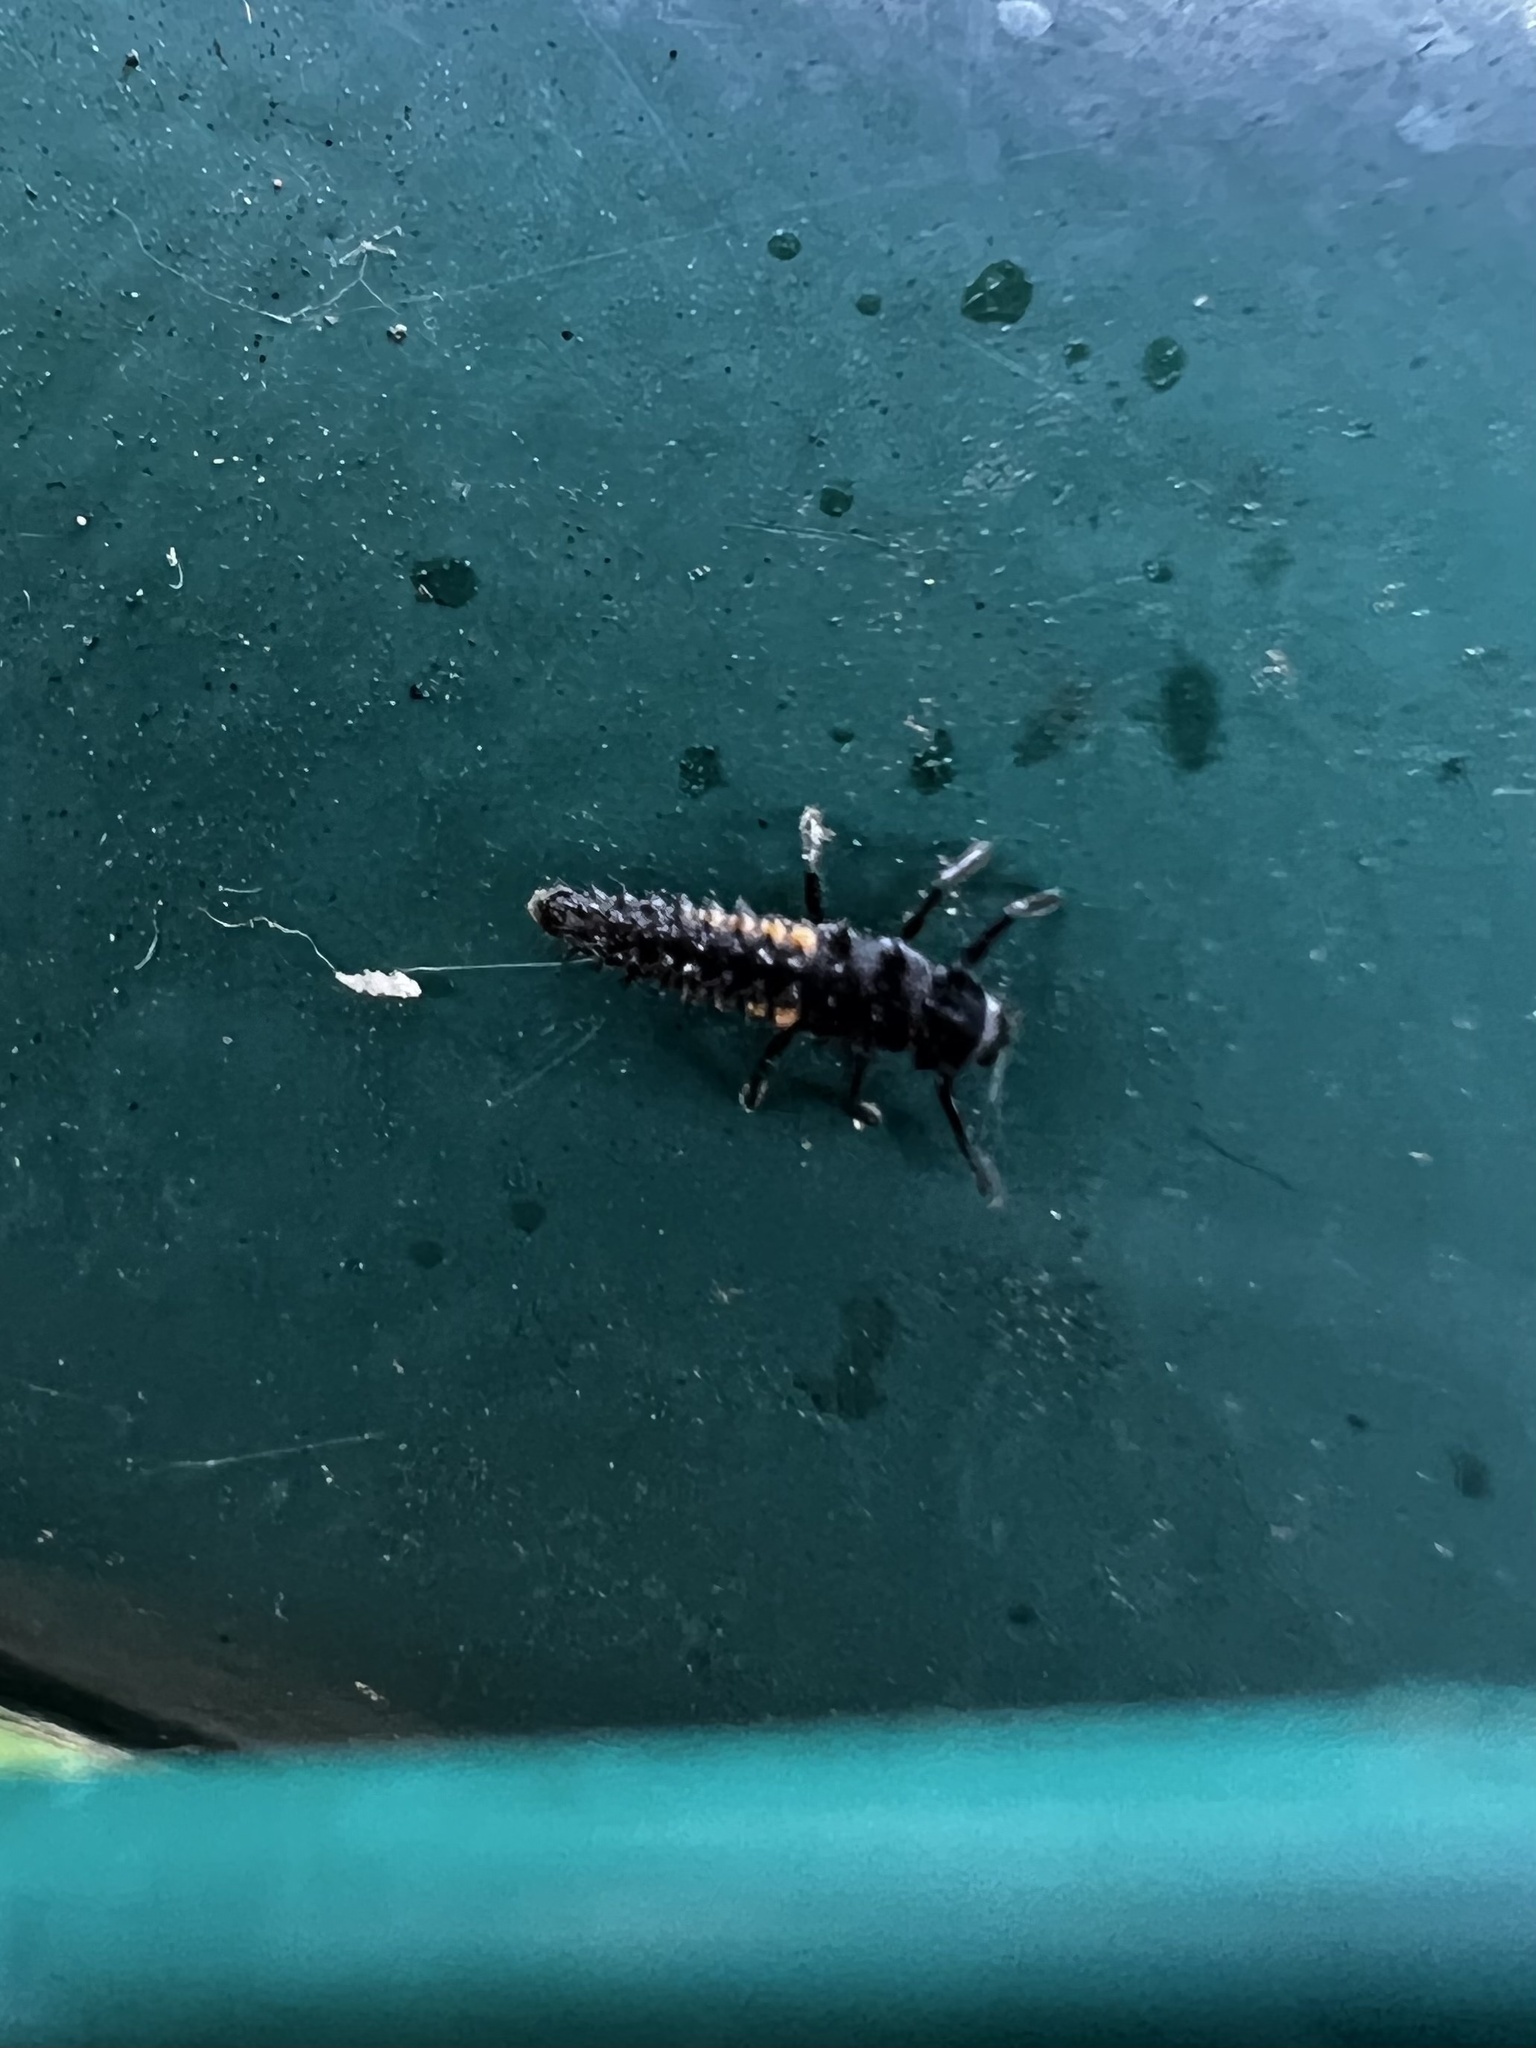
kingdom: Animalia
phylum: Arthropoda
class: Insecta
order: Coleoptera
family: Coccinellidae
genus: Harmonia
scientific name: Harmonia axyridis
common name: Harlequin ladybird
